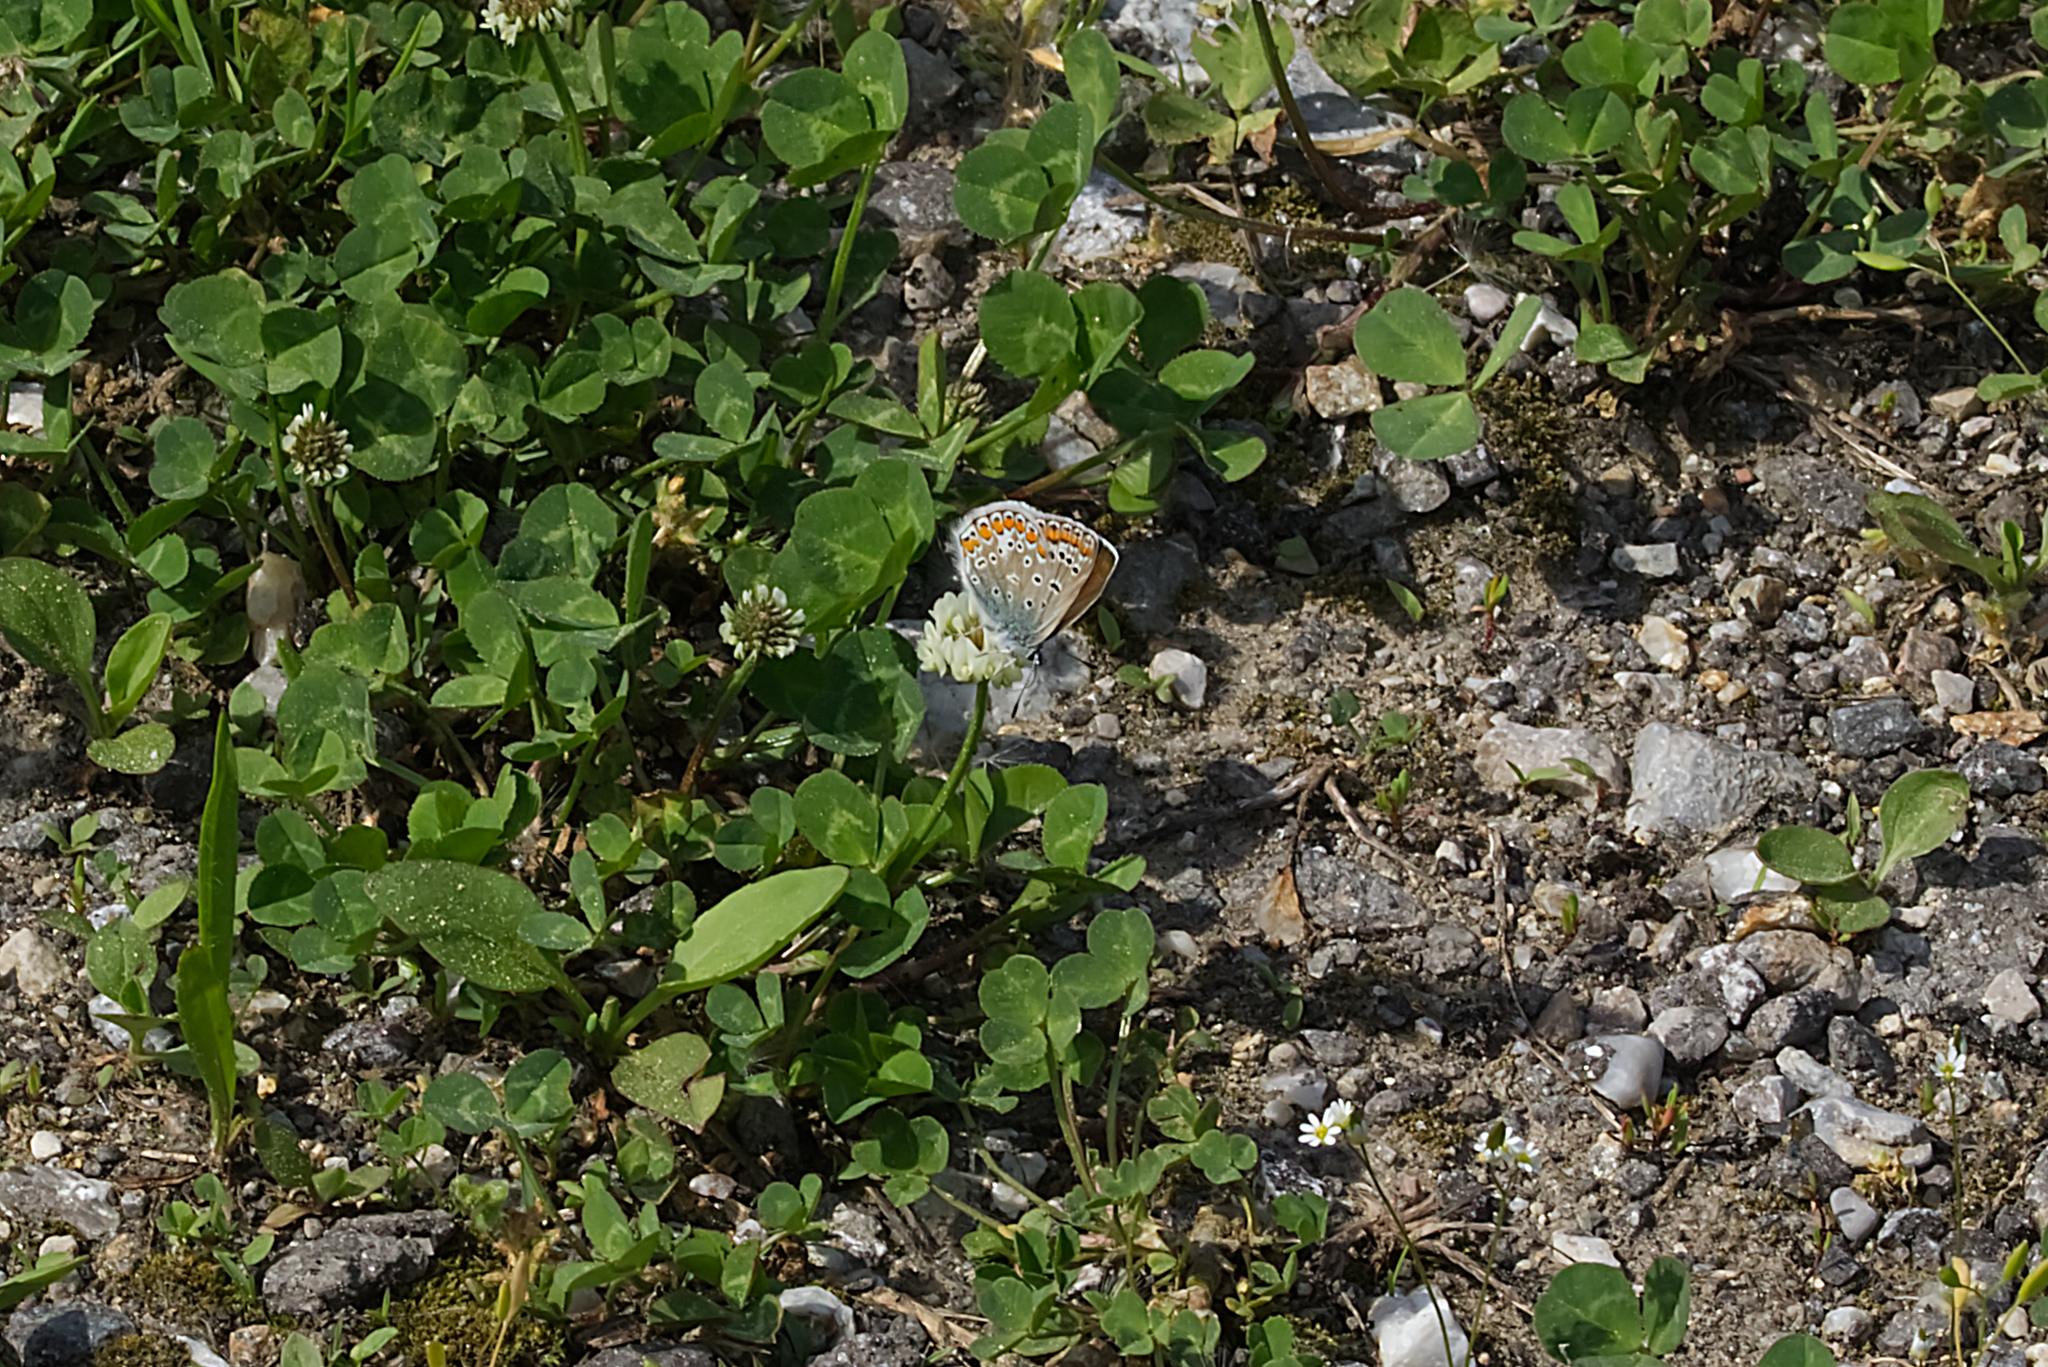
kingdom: Animalia
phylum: Arthropoda
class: Insecta
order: Lepidoptera
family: Lycaenidae
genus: Polyommatus
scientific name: Polyommatus icarus
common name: Common blue
